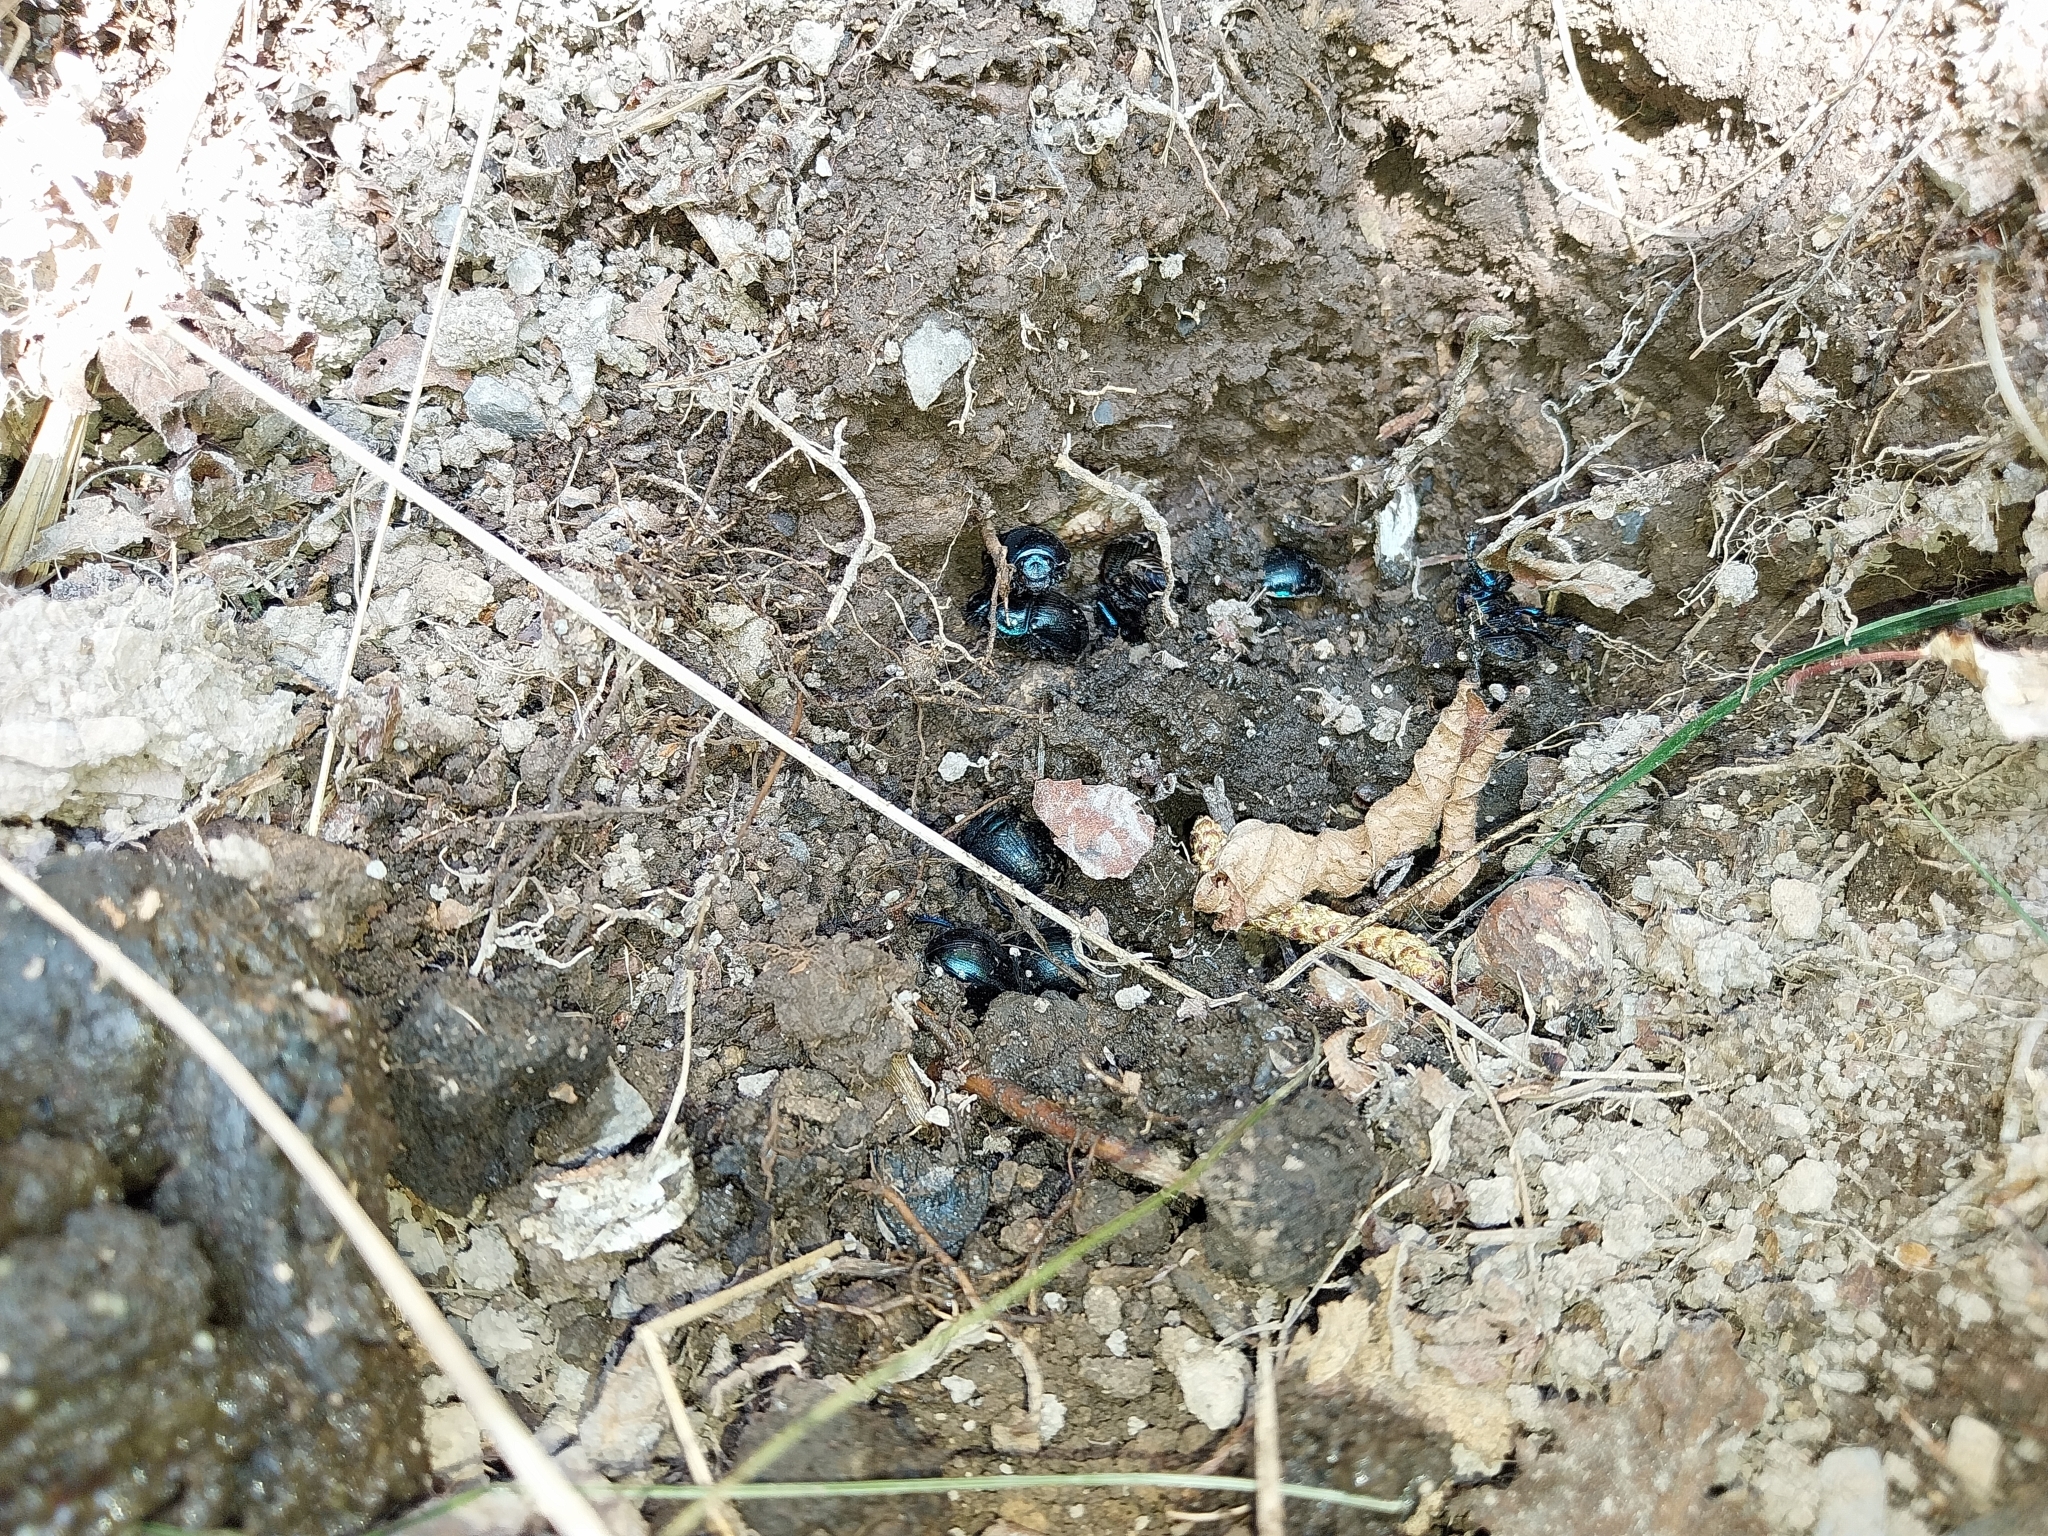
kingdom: Animalia
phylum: Arthropoda
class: Insecta
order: Coleoptera
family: Geotrupidae
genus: Anoplotrupes
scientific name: Anoplotrupes stercorosus
